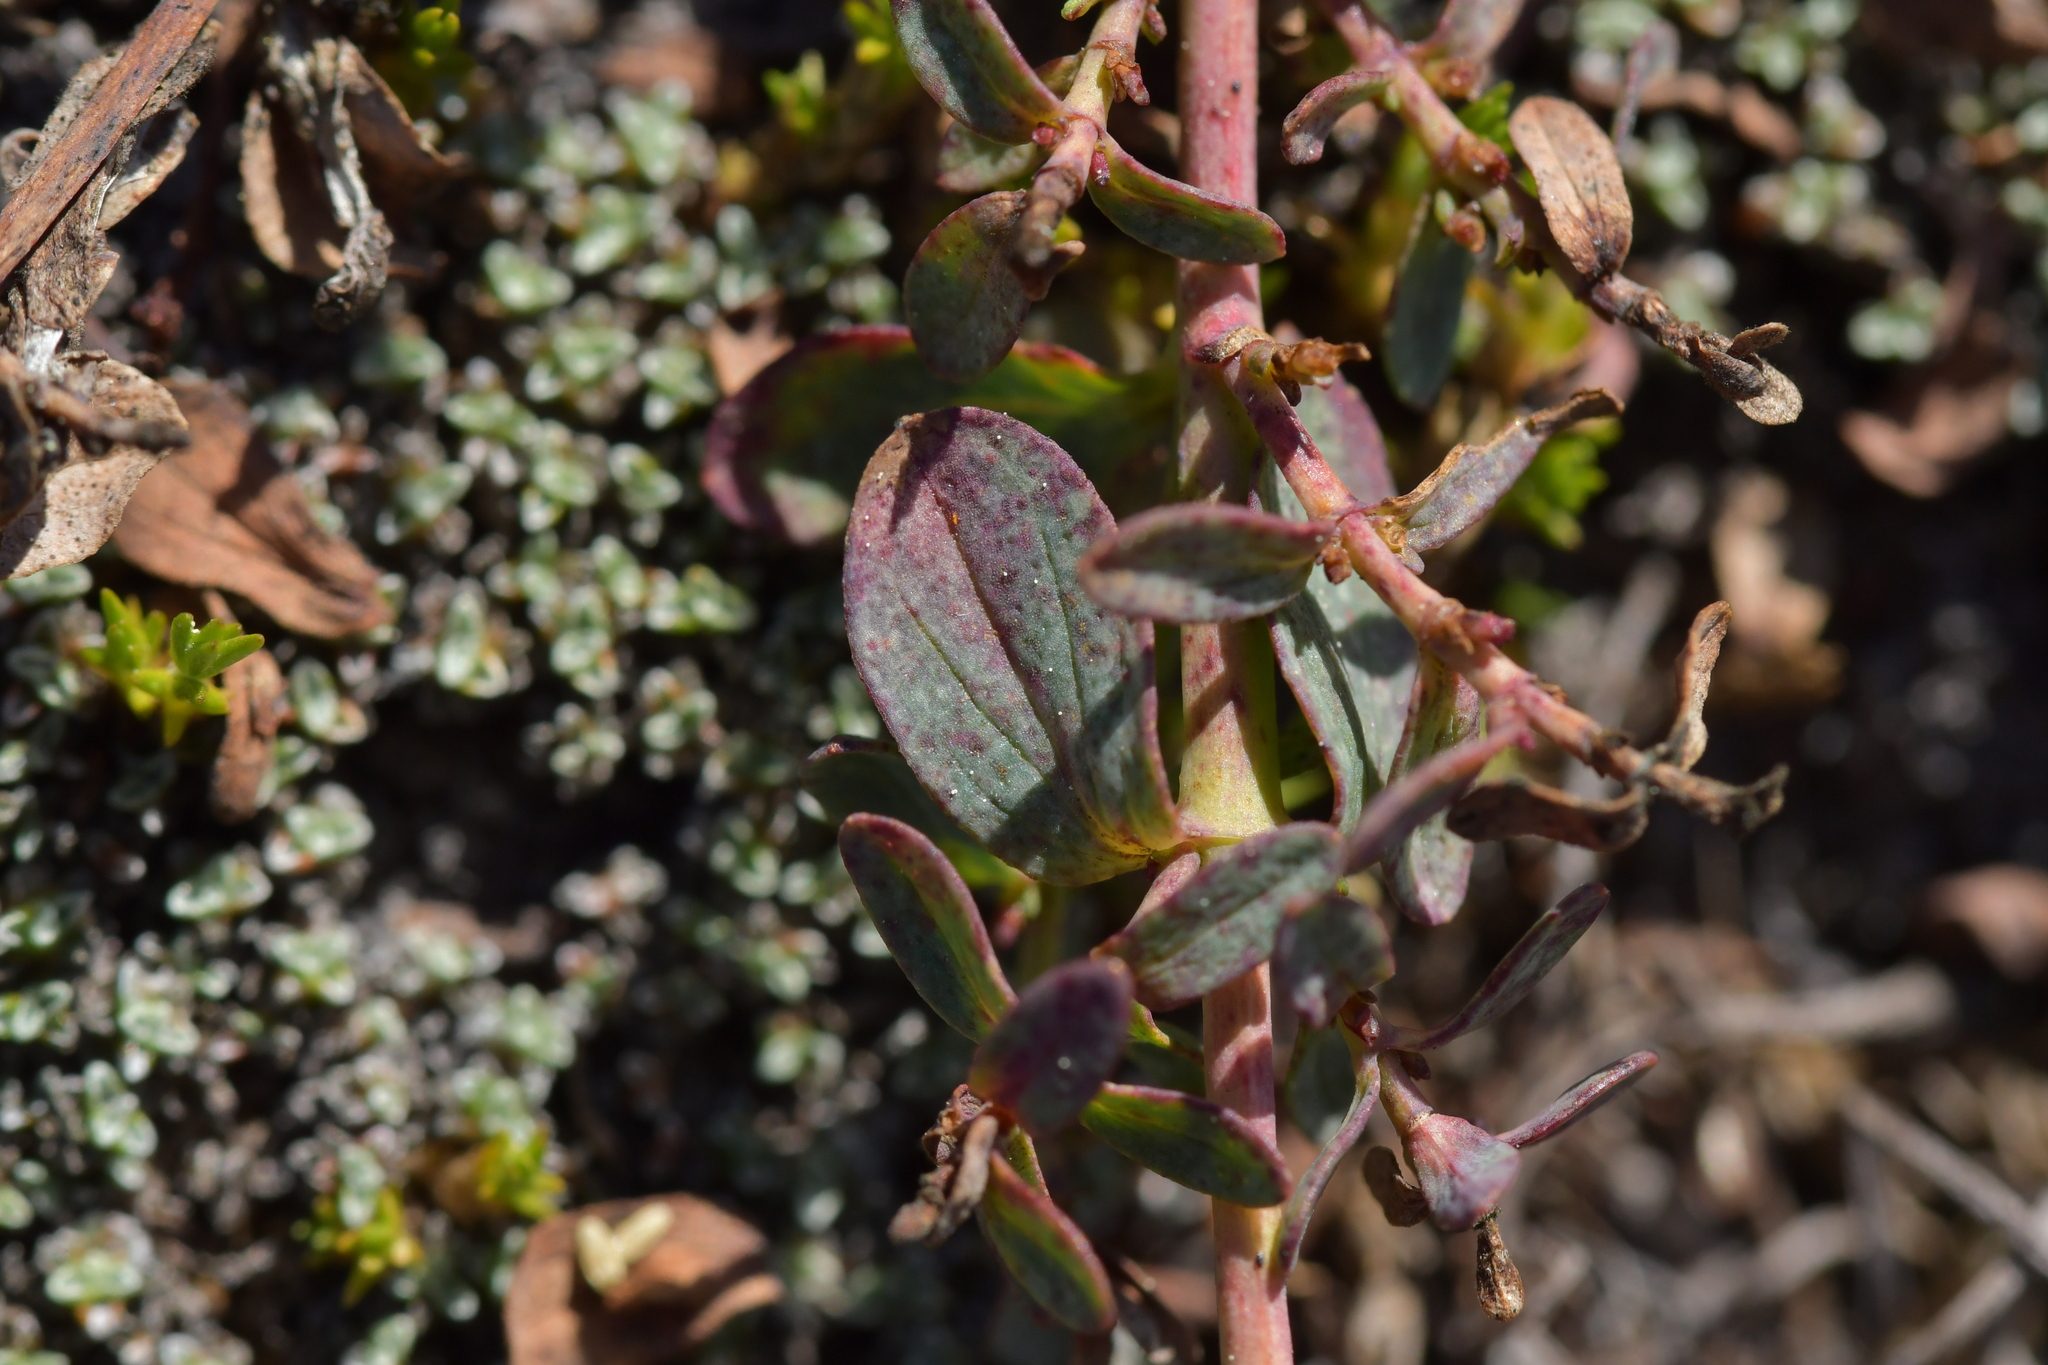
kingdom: Plantae
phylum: Tracheophyta
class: Magnoliopsida
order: Malpighiales
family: Hypericaceae
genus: Hypericum
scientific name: Hypericum perforatum
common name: Common st. johnswort
